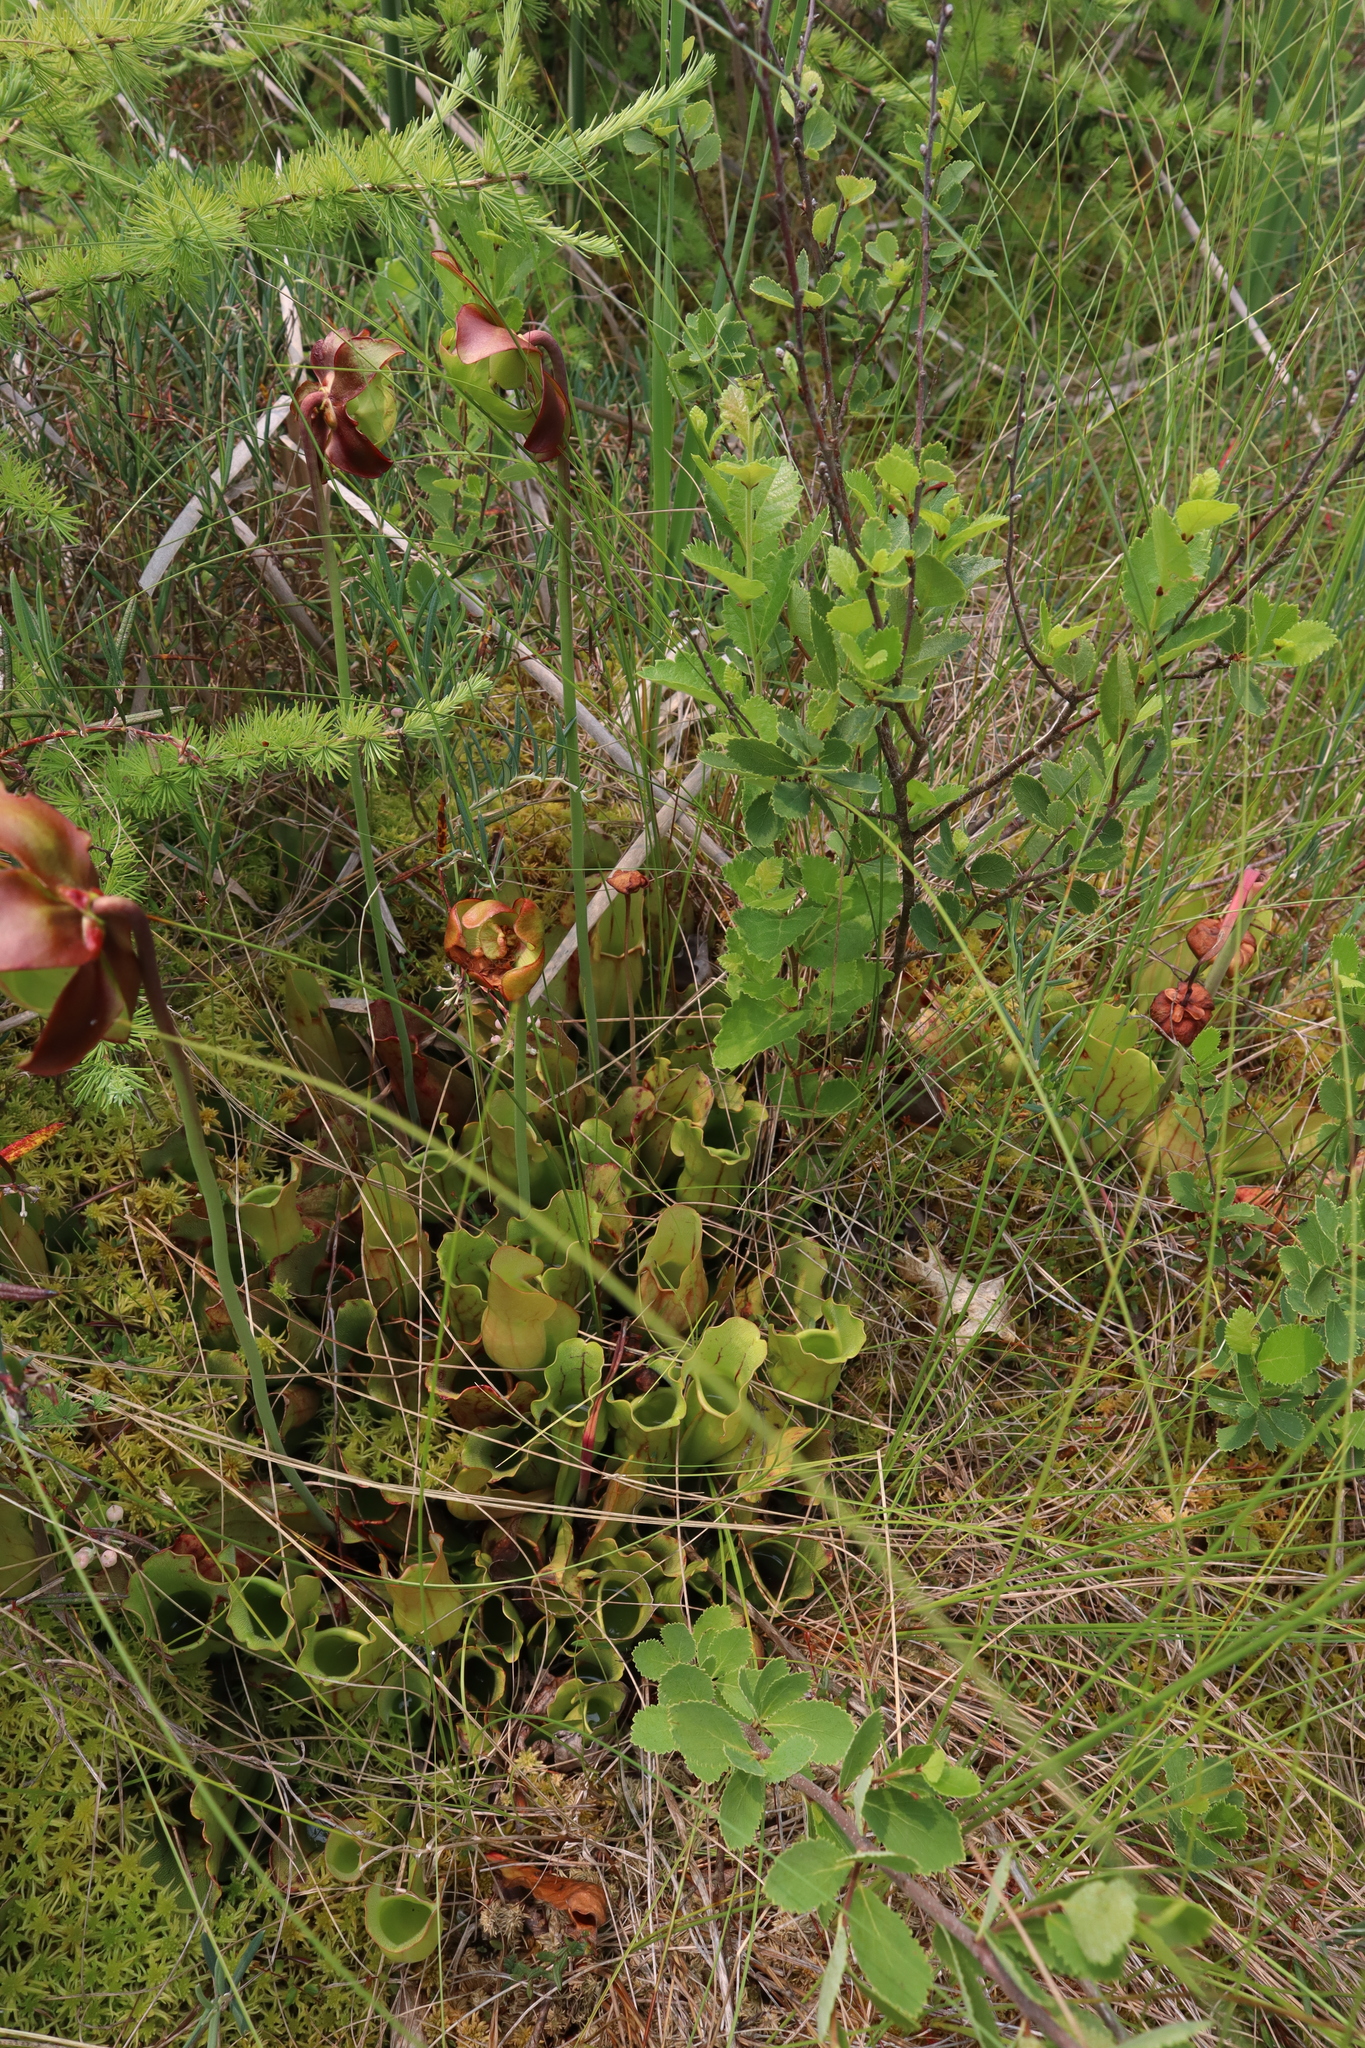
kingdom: Plantae
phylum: Tracheophyta
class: Magnoliopsida
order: Ericales
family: Sarraceniaceae
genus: Sarracenia
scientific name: Sarracenia purpurea
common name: Pitcherplant
